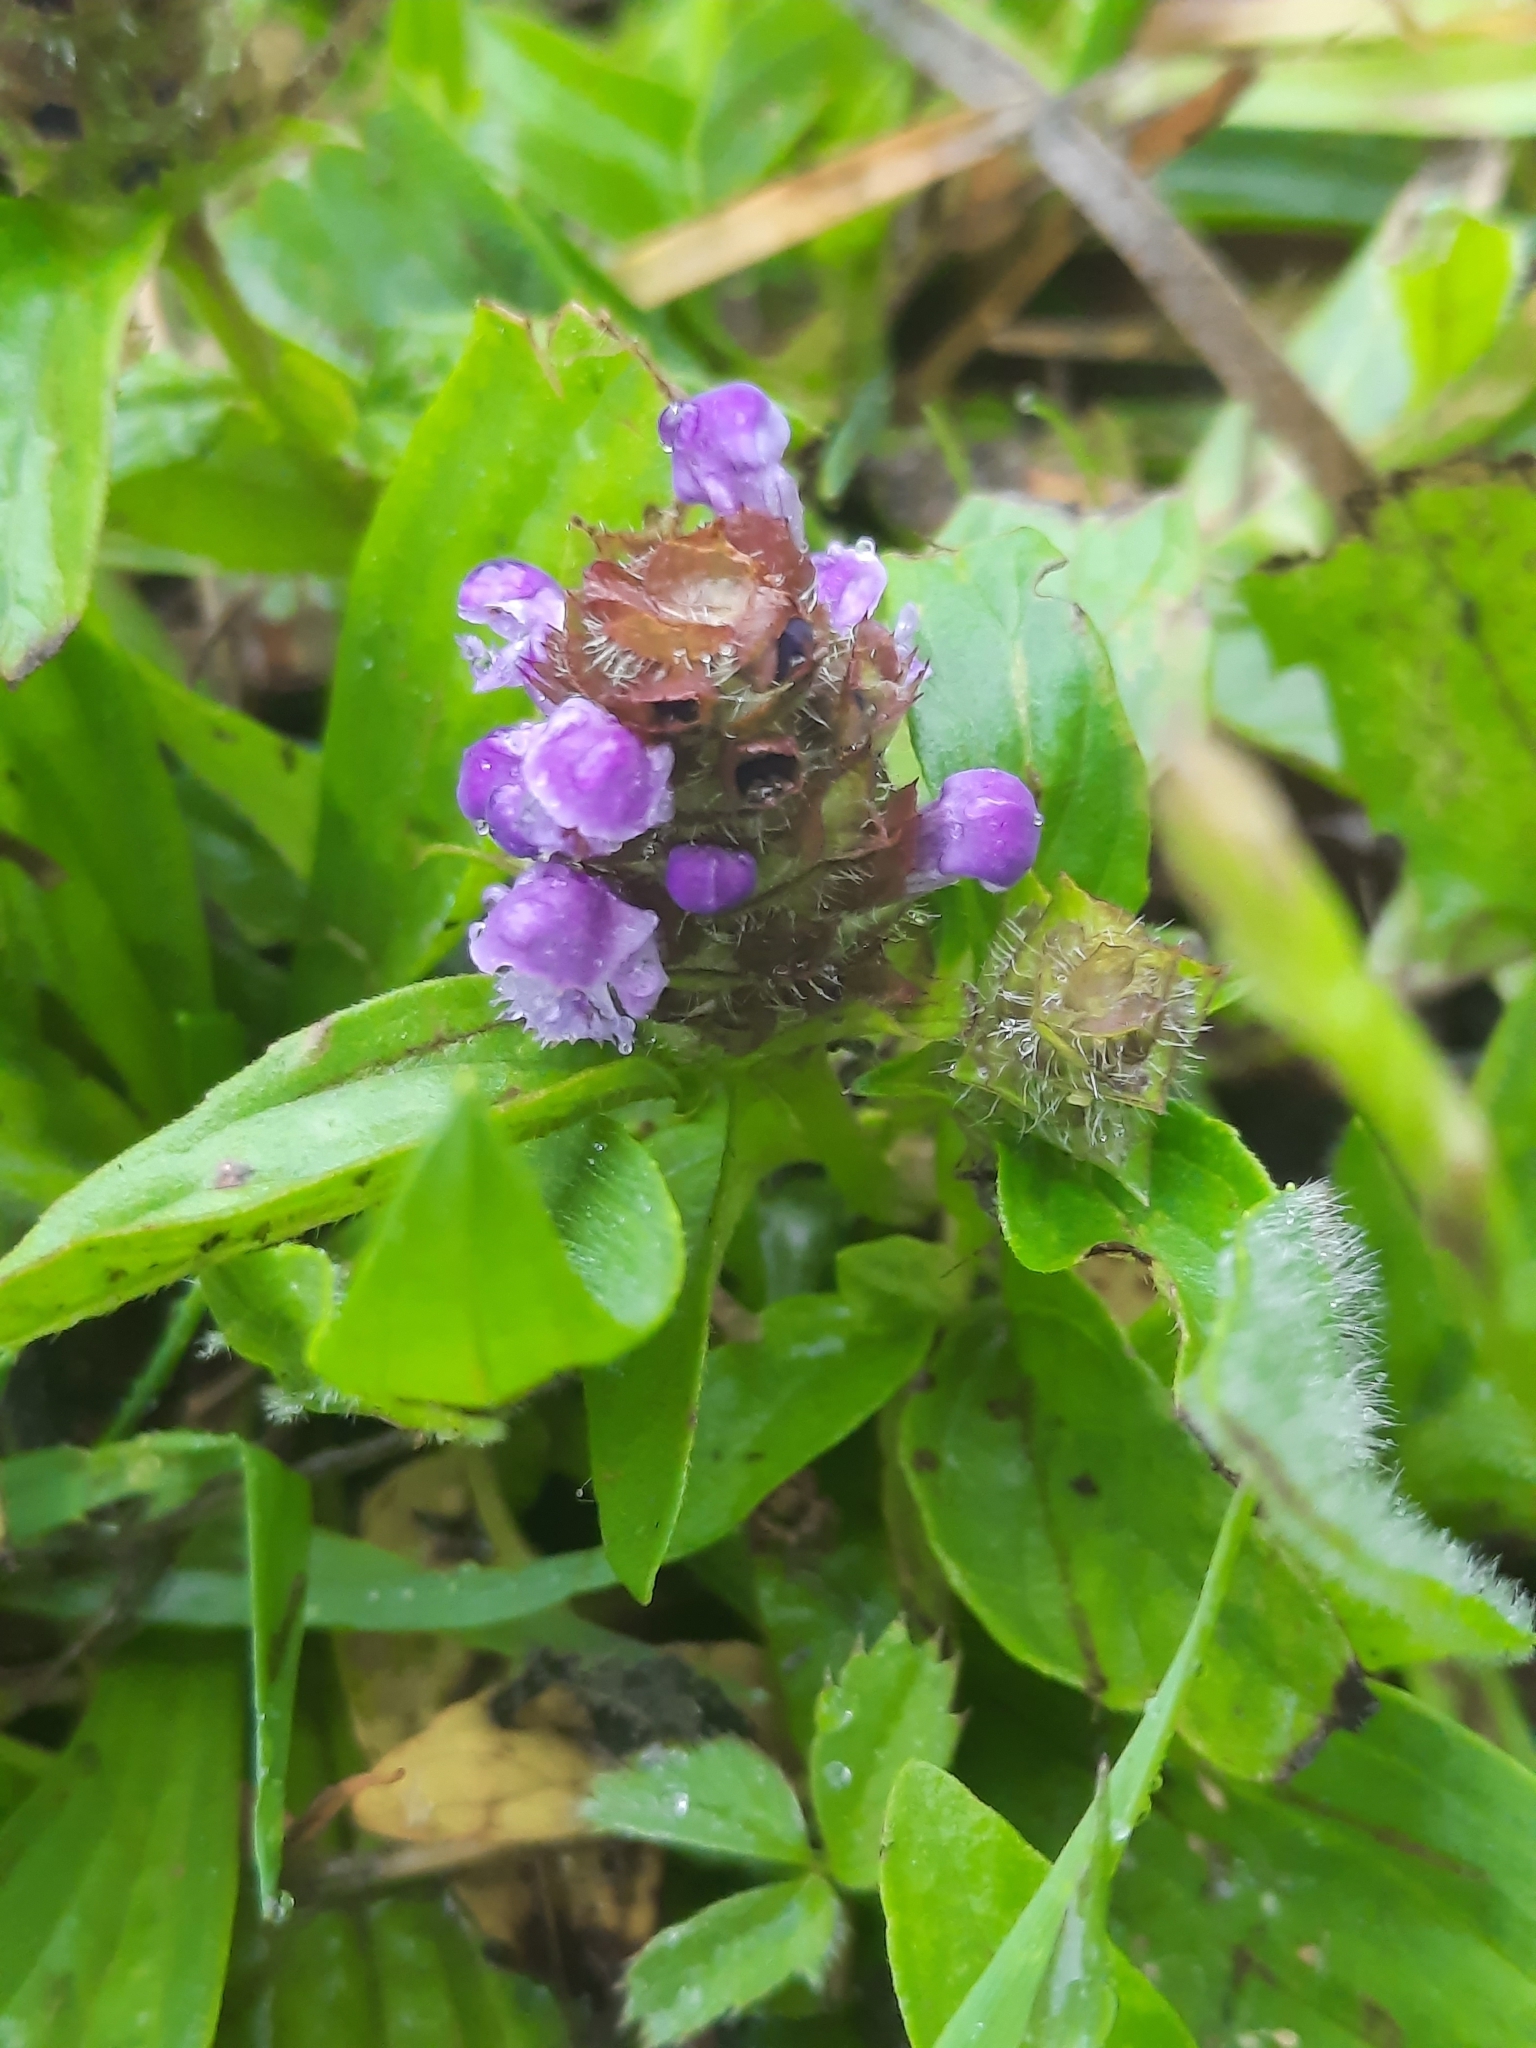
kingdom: Plantae
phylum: Tracheophyta
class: Magnoliopsida
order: Lamiales
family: Lamiaceae
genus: Prunella
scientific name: Prunella vulgaris
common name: Heal-all
